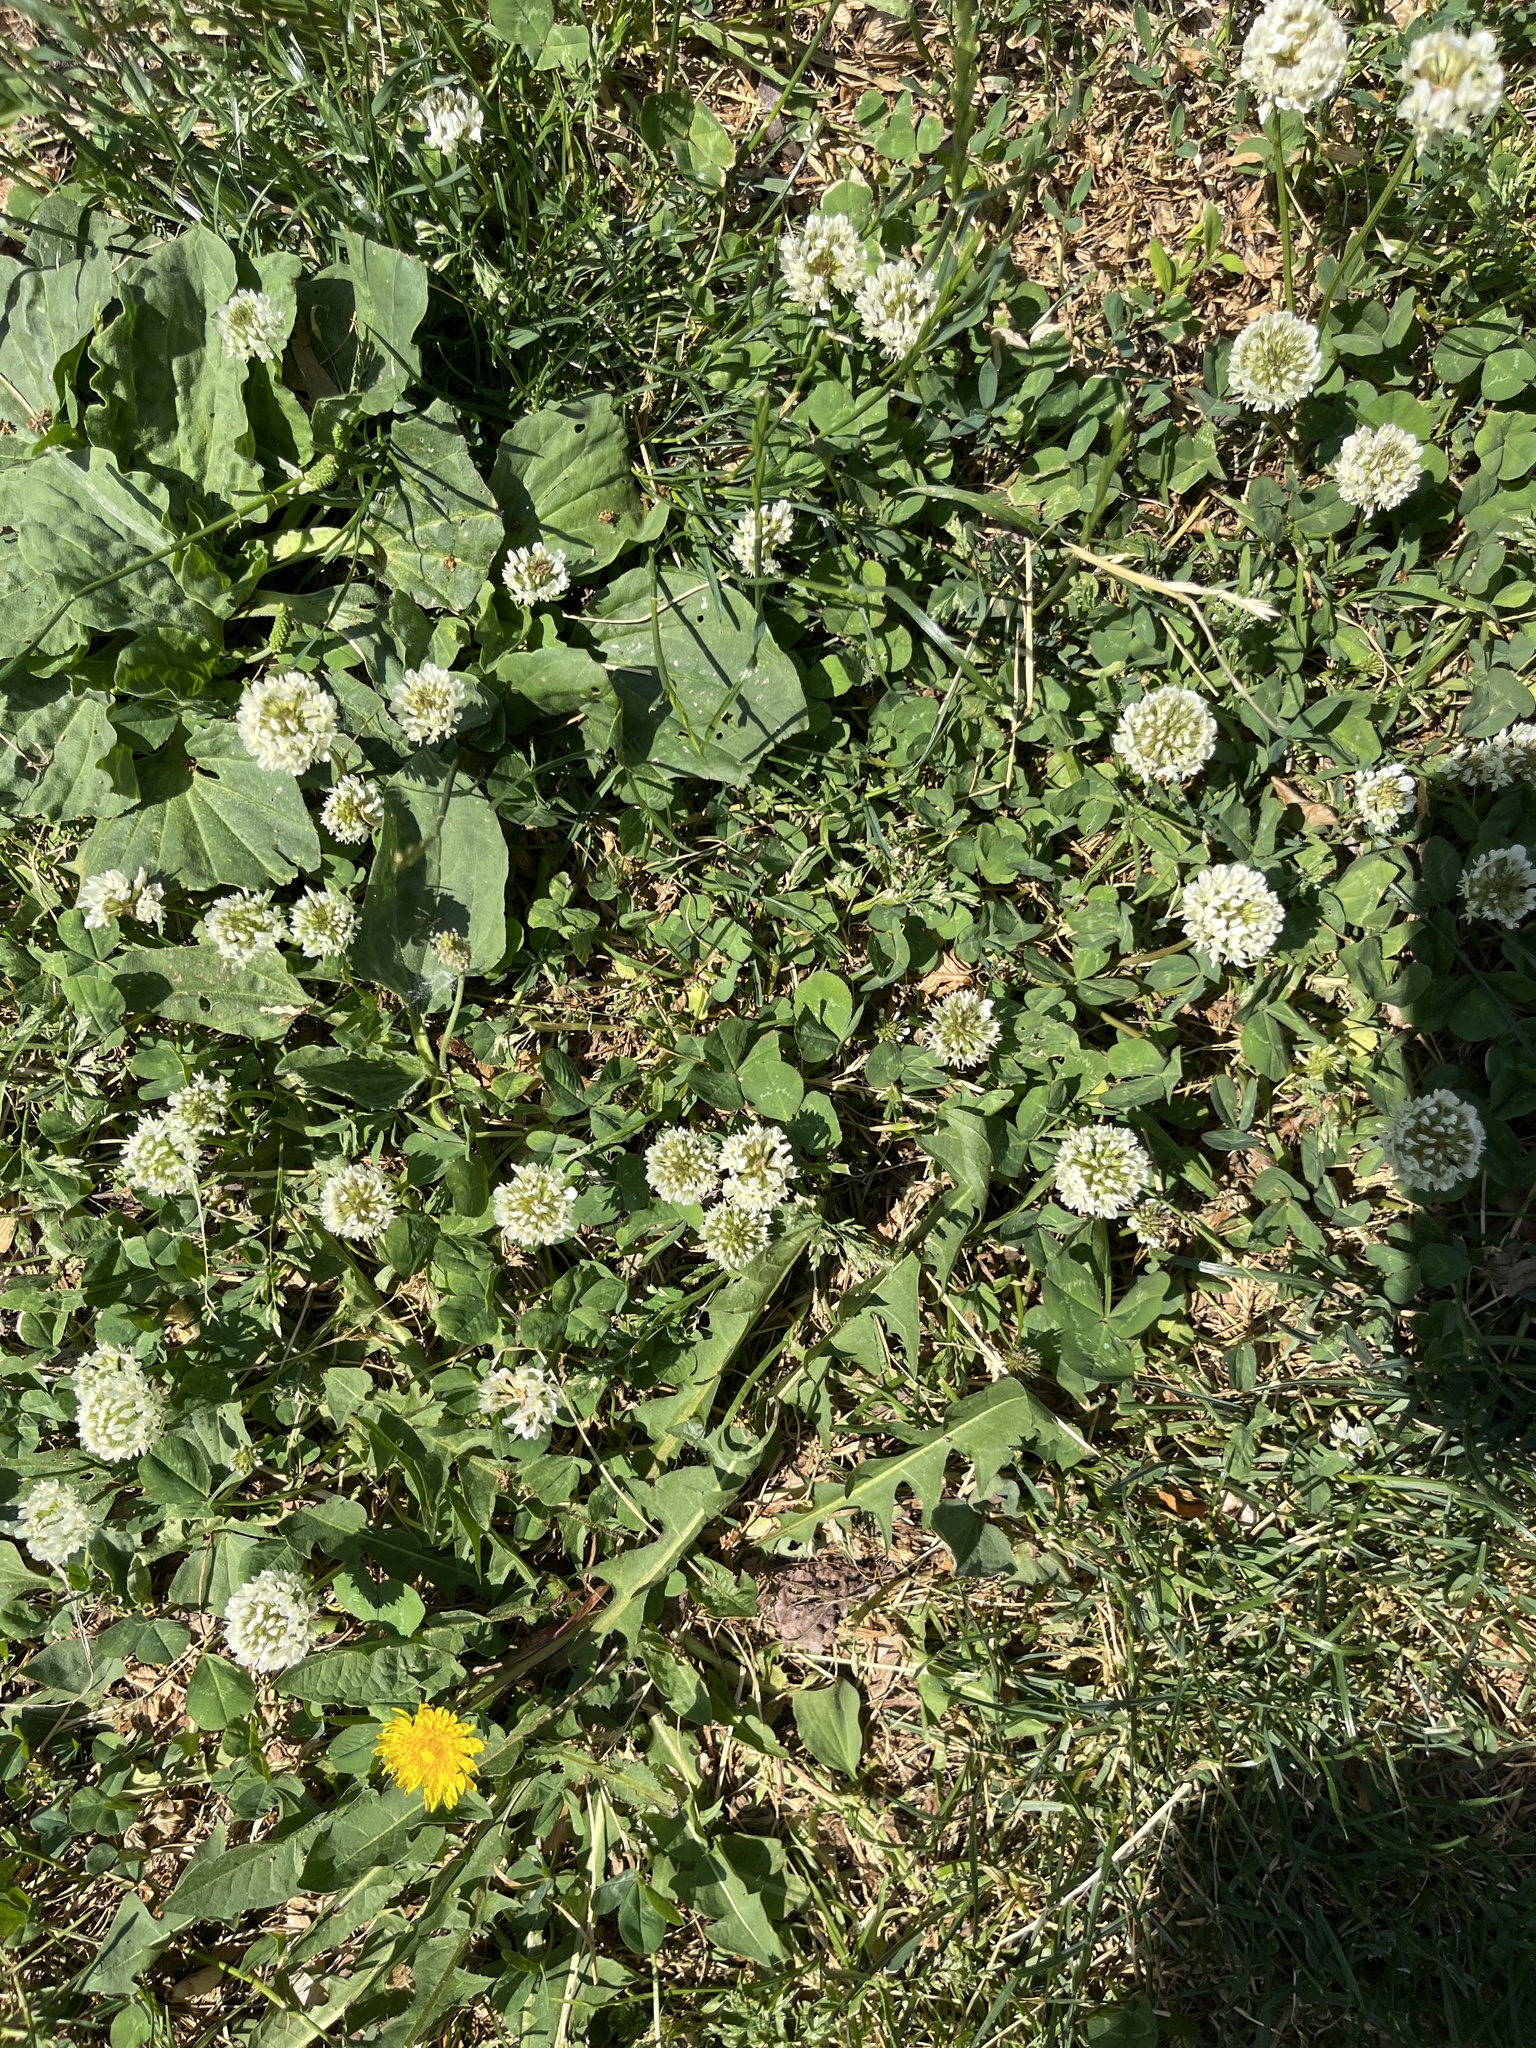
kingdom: Plantae
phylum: Tracheophyta
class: Magnoliopsida
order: Fabales
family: Fabaceae
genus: Trifolium
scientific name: Trifolium repens
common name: White clover
